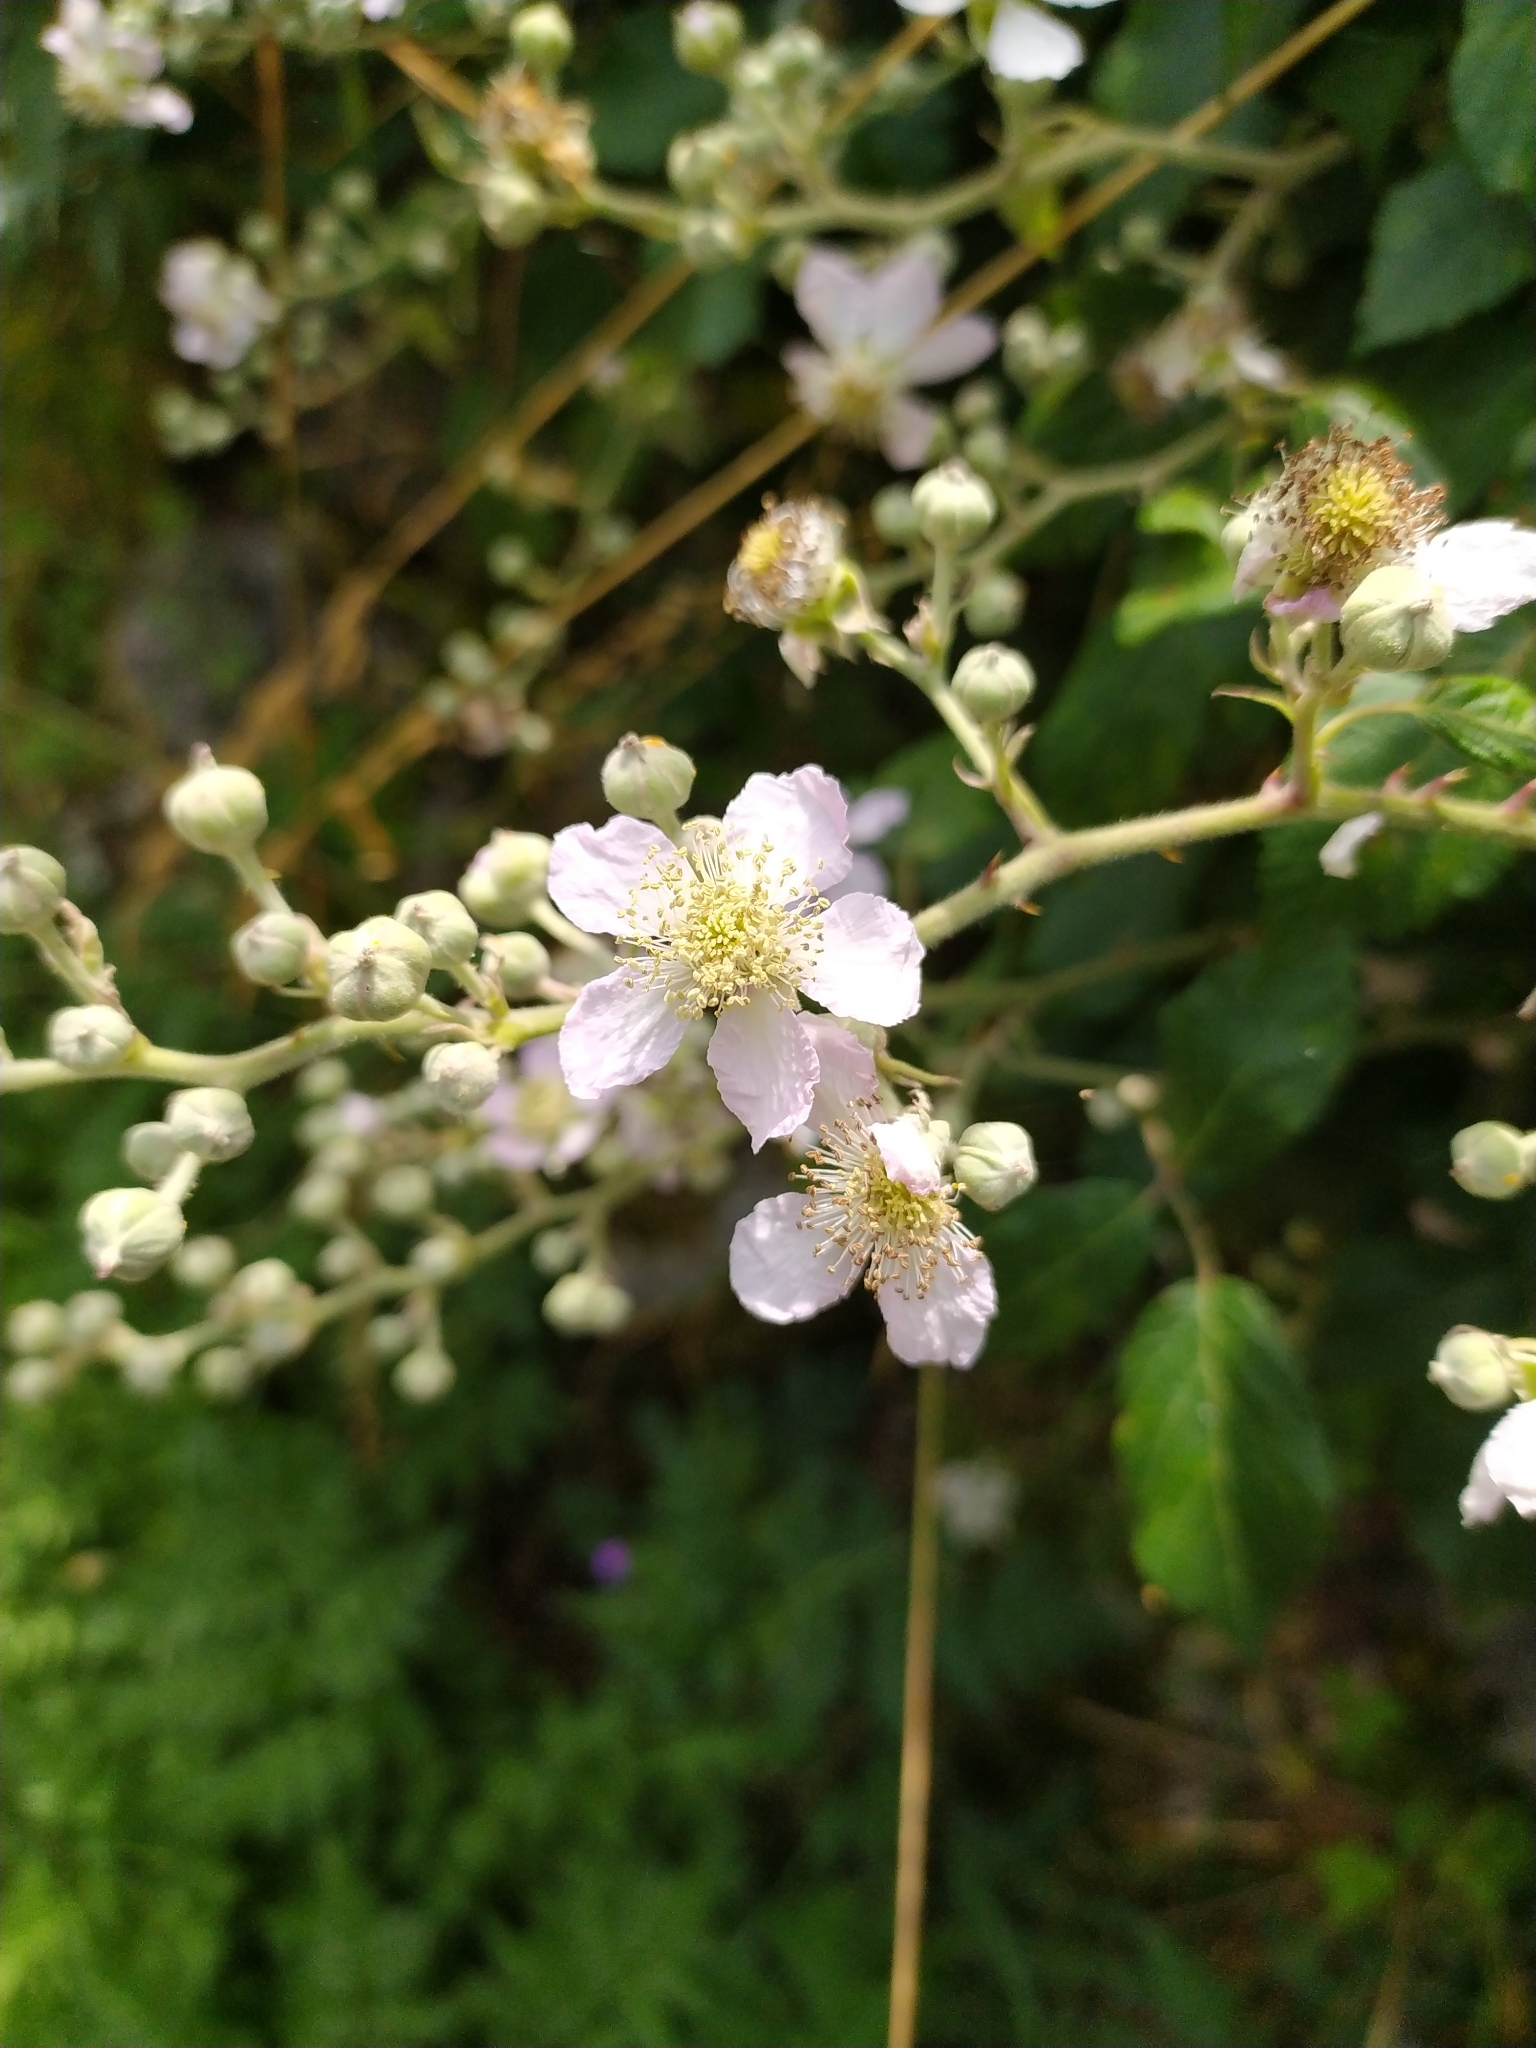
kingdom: Plantae
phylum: Tracheophyta
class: Magnoliopsida
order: Rosales
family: Rosaceae
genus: Rubus
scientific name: Rubus ulmifolius
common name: Elmleaf blackberry
